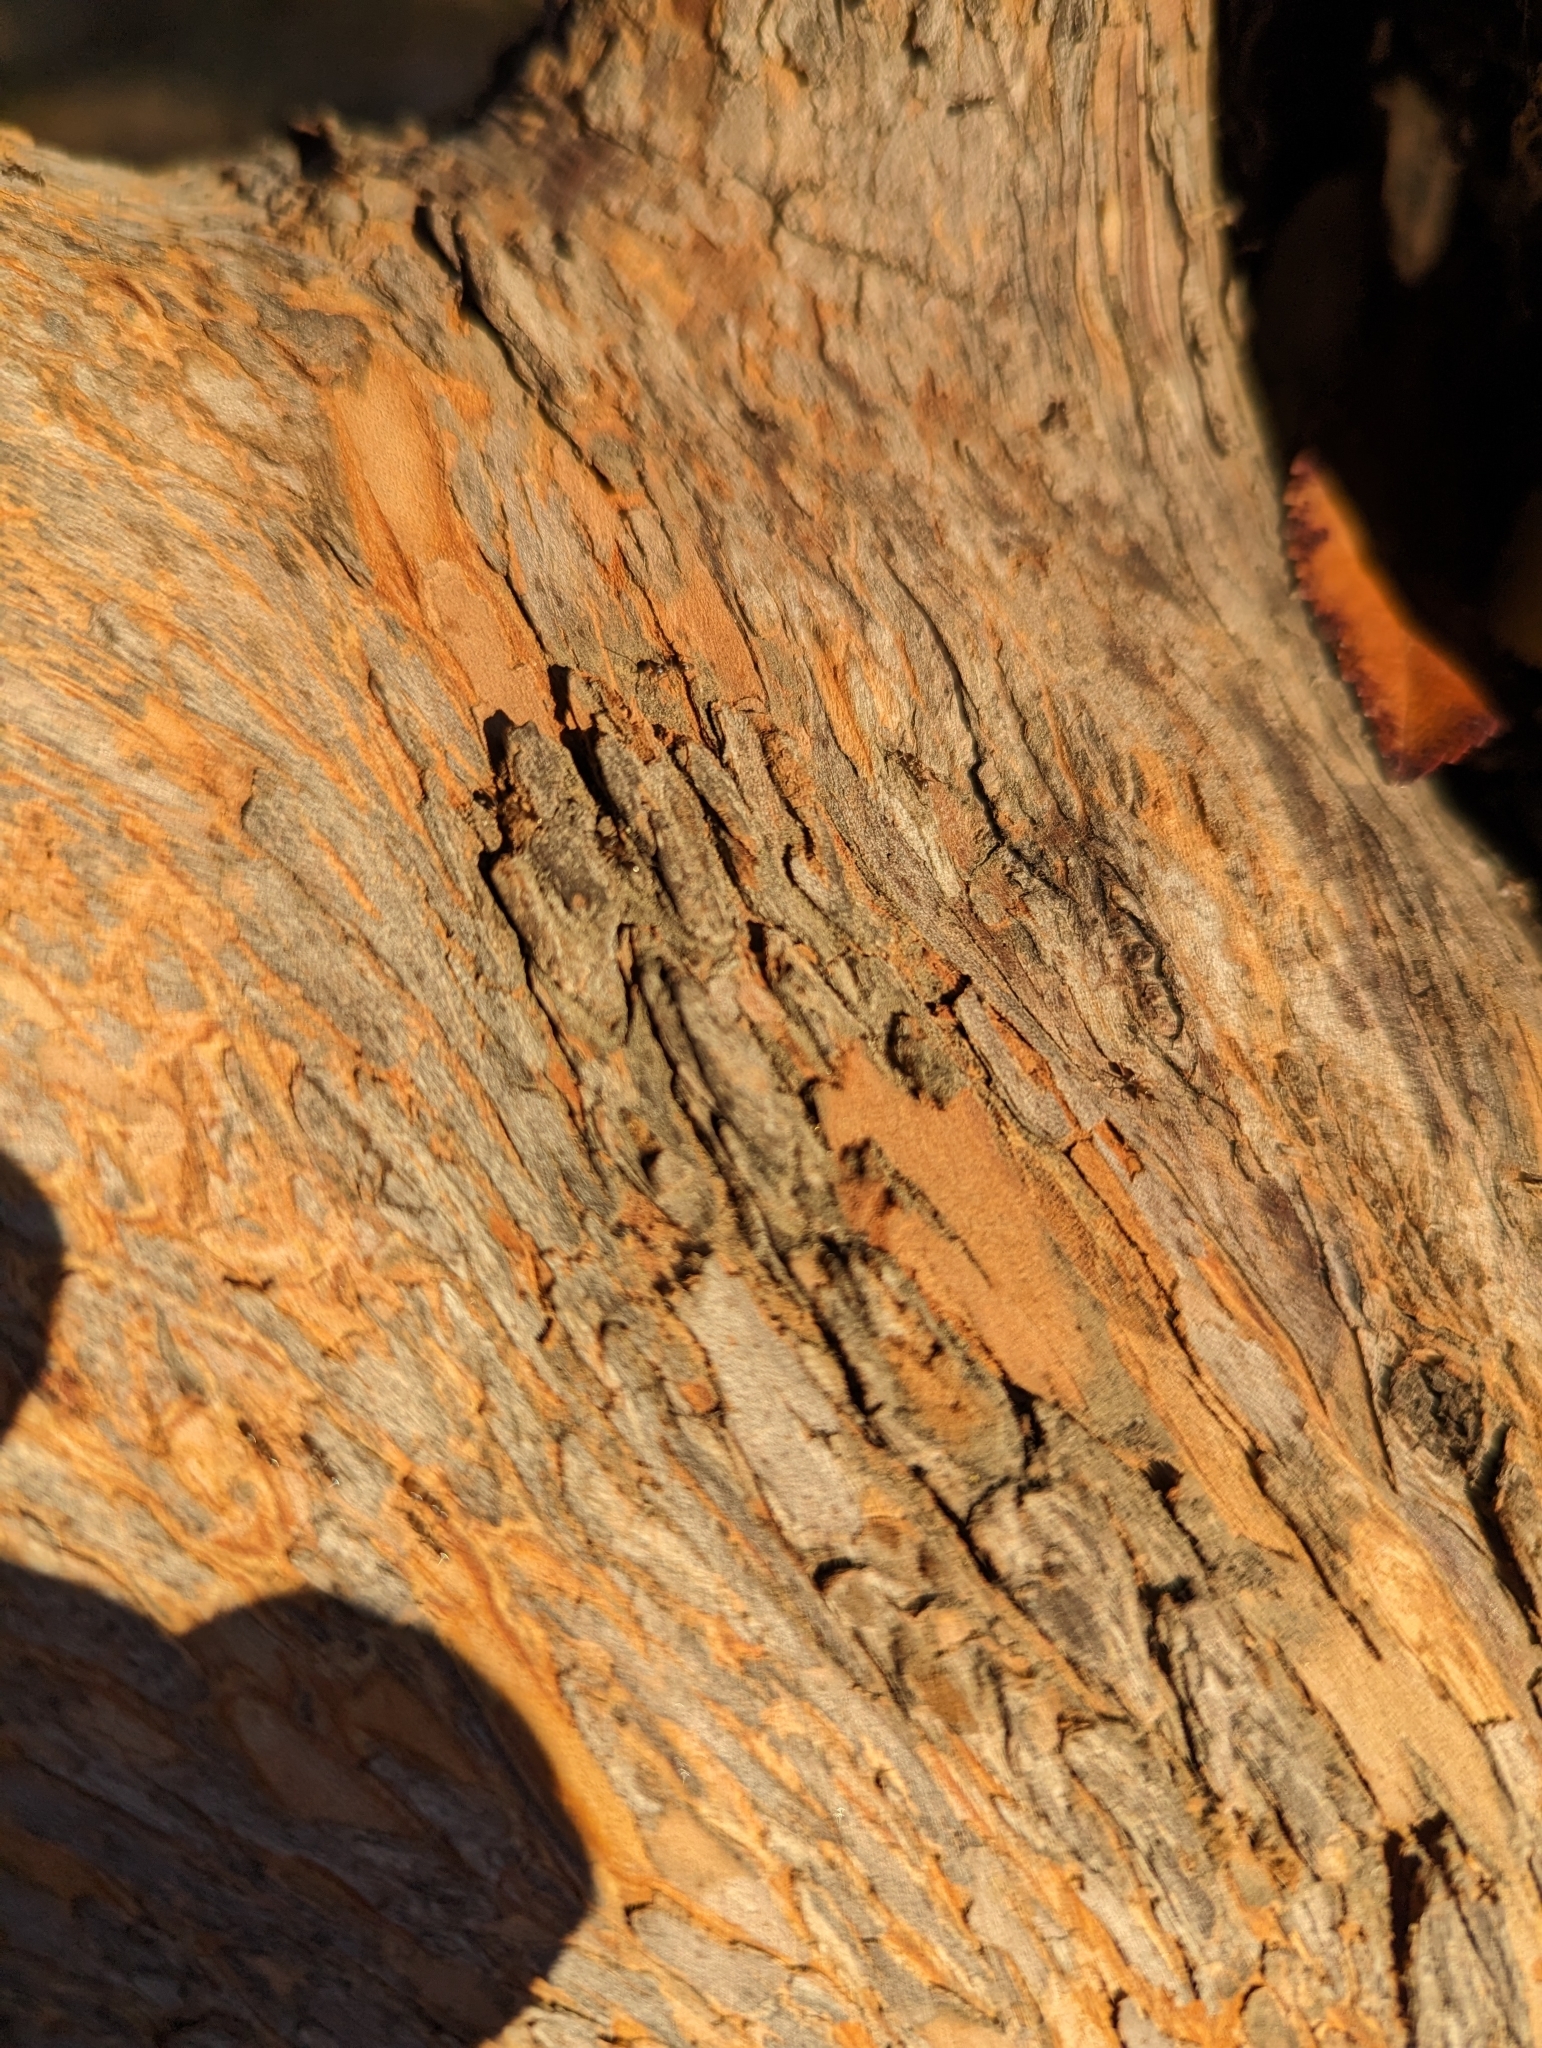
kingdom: Animalia
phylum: Arthropoda
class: Insecta
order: Hymenoptera
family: Formicidae
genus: Linepithema
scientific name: Linepithema humile
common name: Argentine ant
